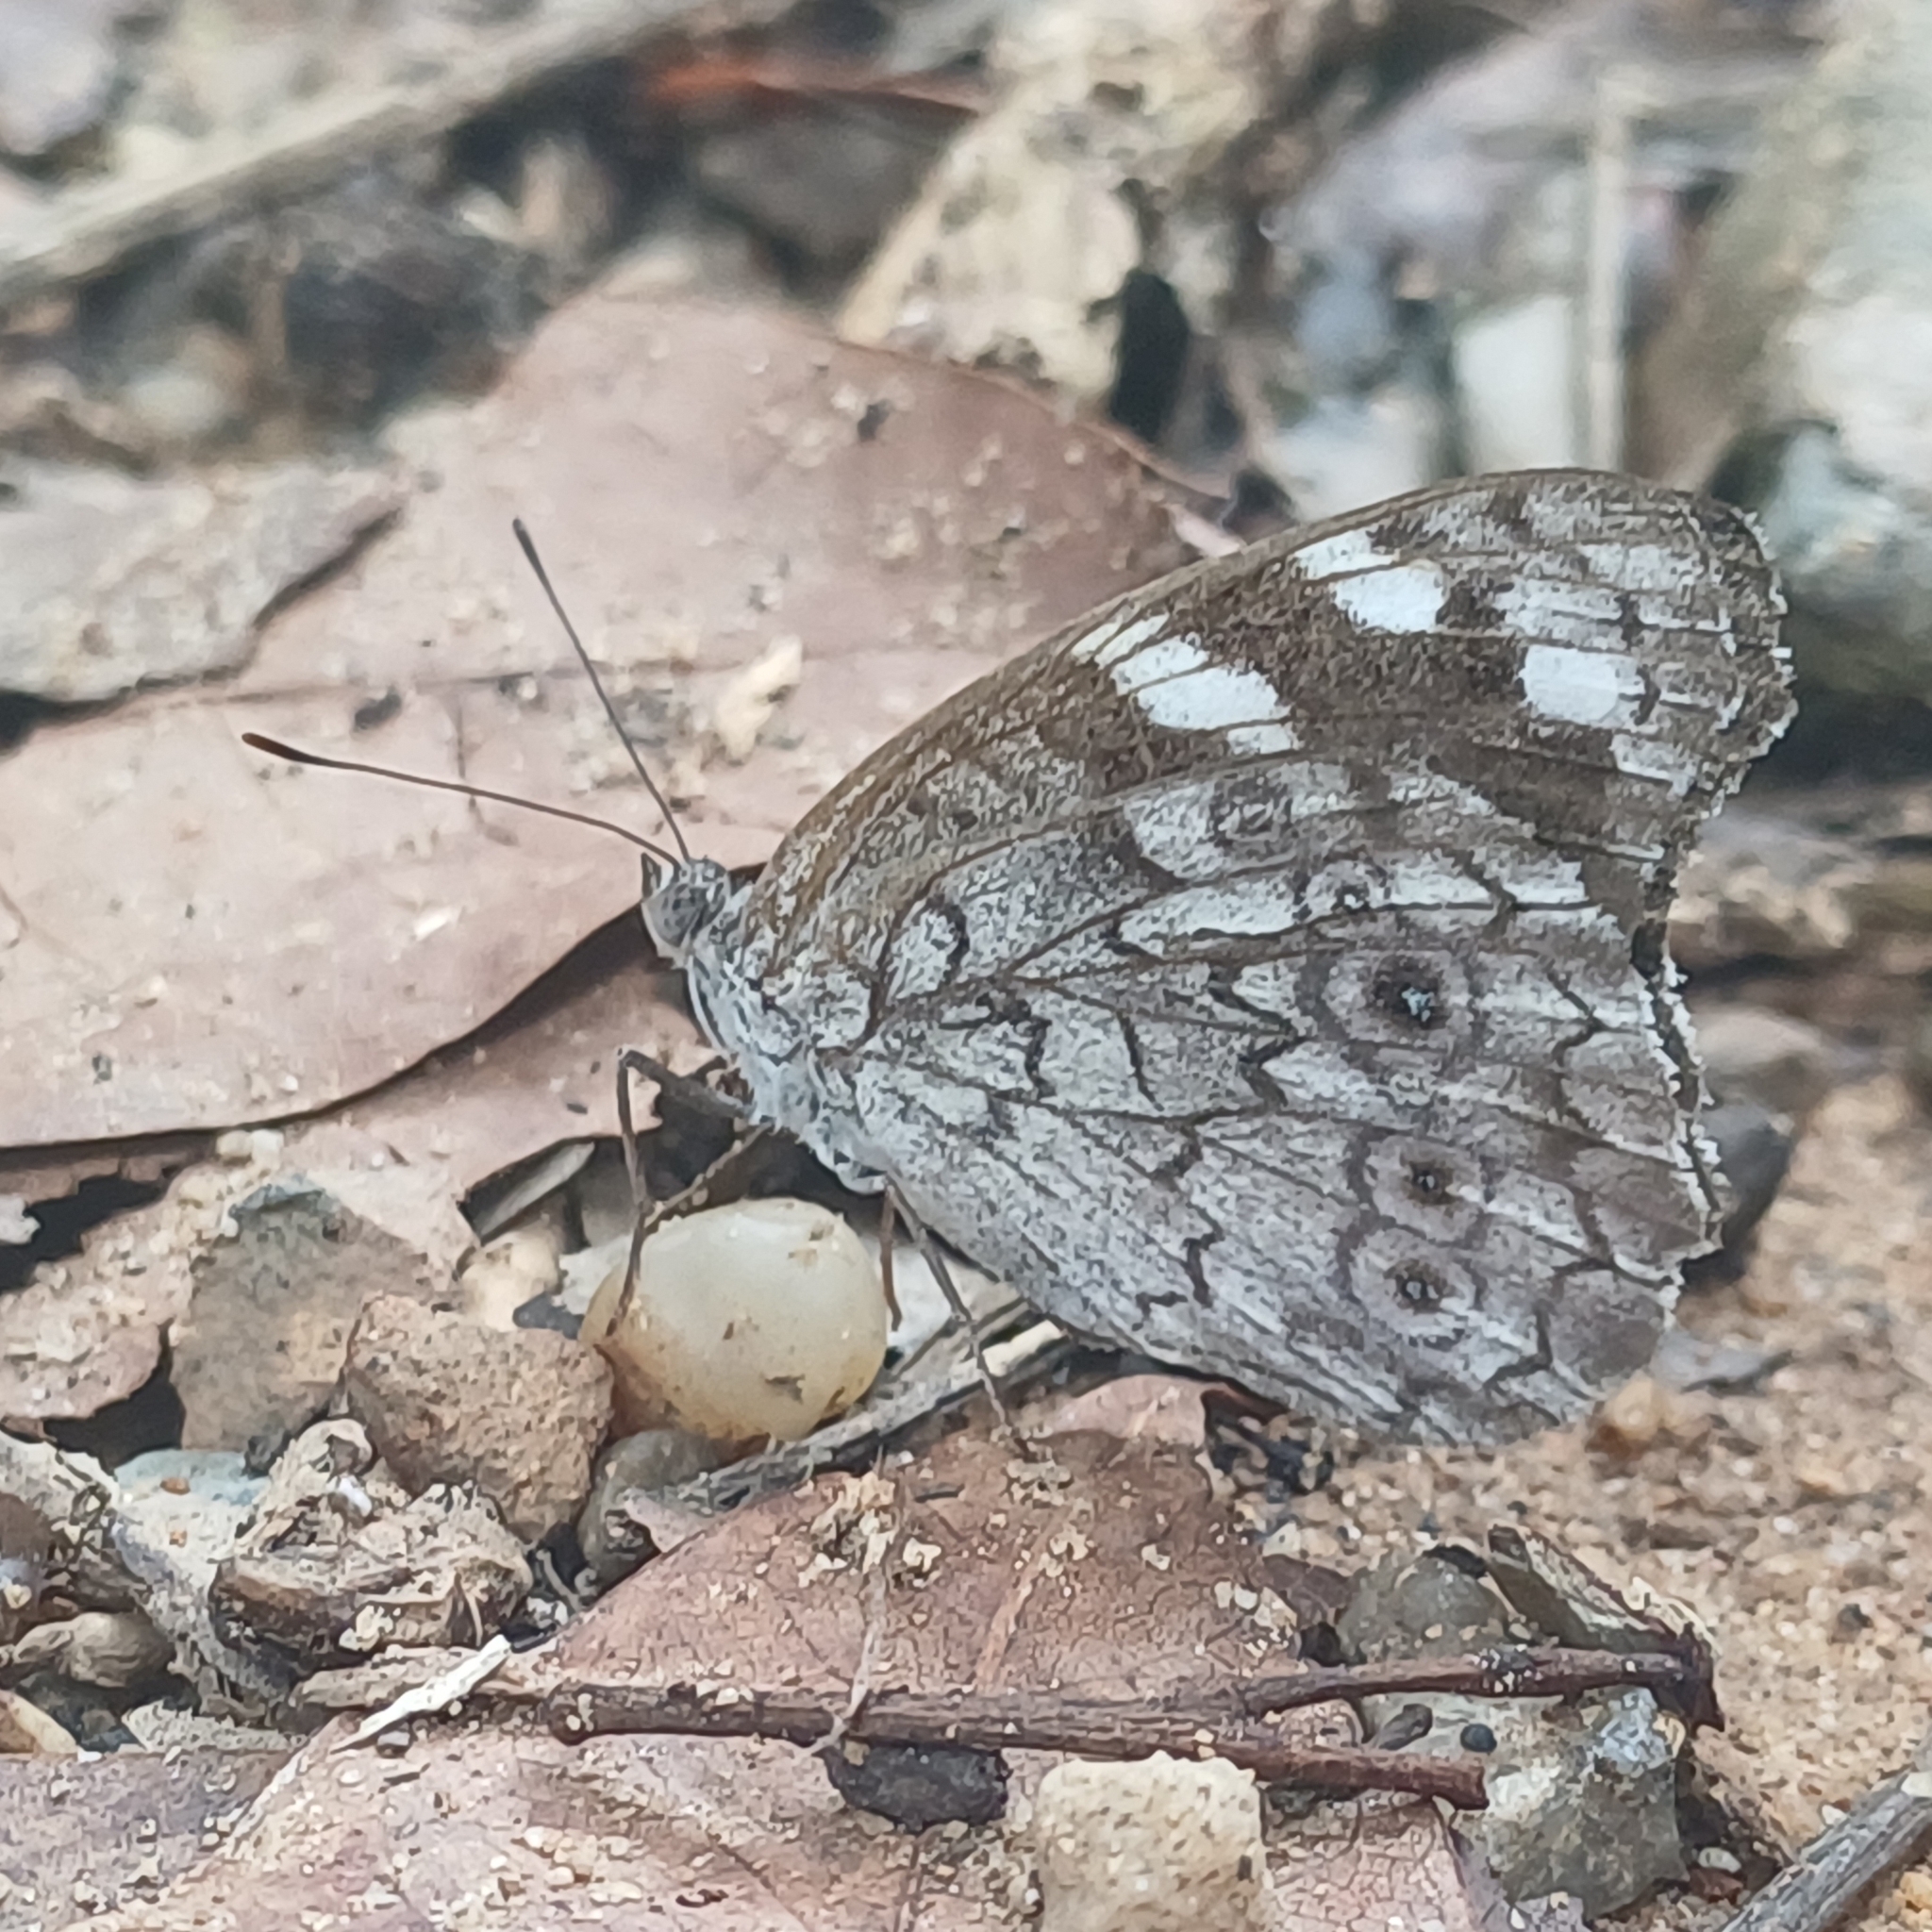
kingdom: Animalia
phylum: Arthropoda
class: Insecta
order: Lepidoptera
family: Nymphalidae
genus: Eunica
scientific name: Eunica macris
